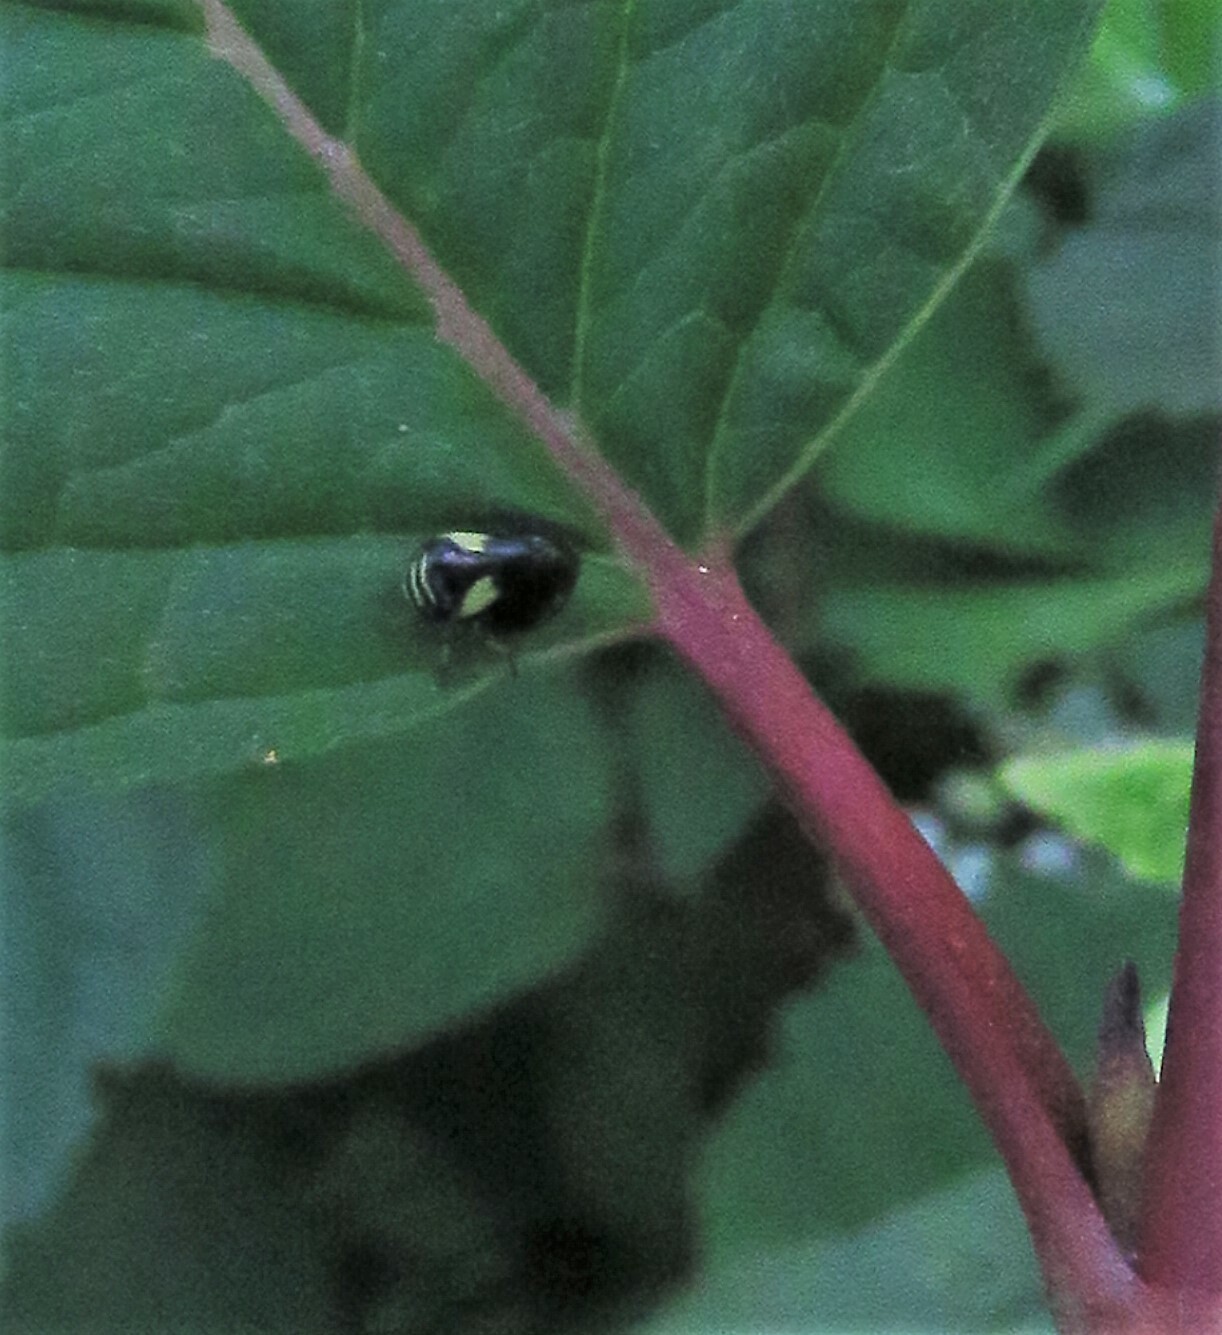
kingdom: Animalia
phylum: Arthropoda
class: Insecta
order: Hemiptera
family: Clastopteridae
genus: Clastoptera
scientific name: Clastoptera proteus
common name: Dogwood spittlebug
